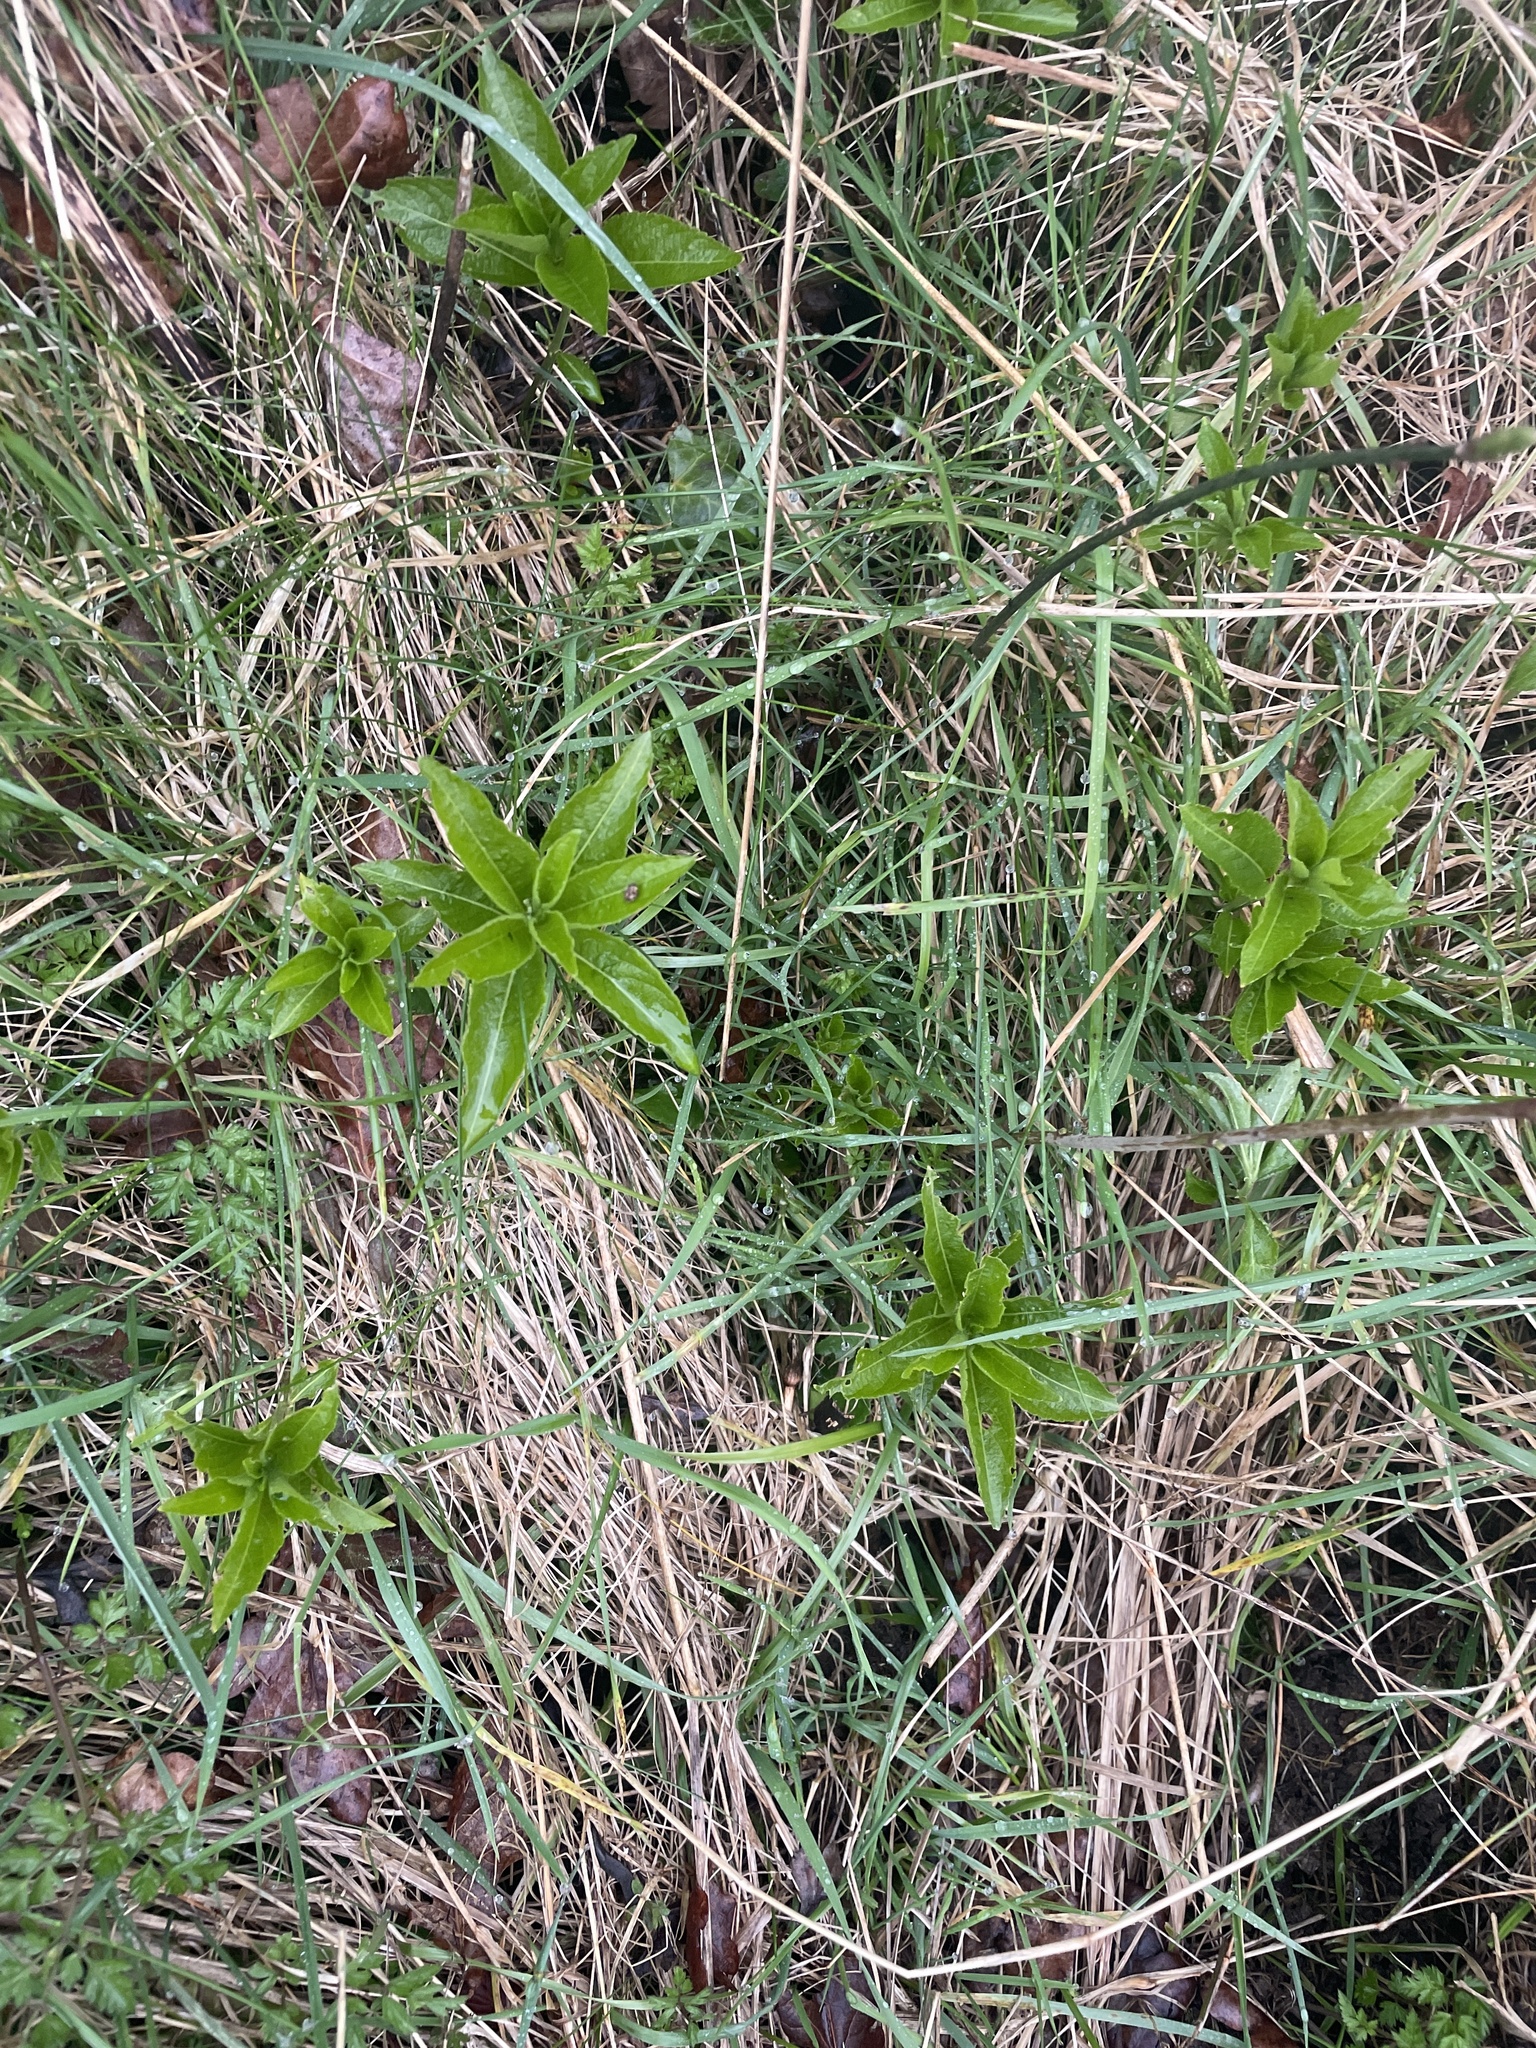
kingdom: Plantae
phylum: Tracheophyta
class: Magnoliopsida
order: Malpighiales
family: Euphorbiaceae
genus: Mercurialis
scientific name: Mercurialis perennis
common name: Dog mercury
